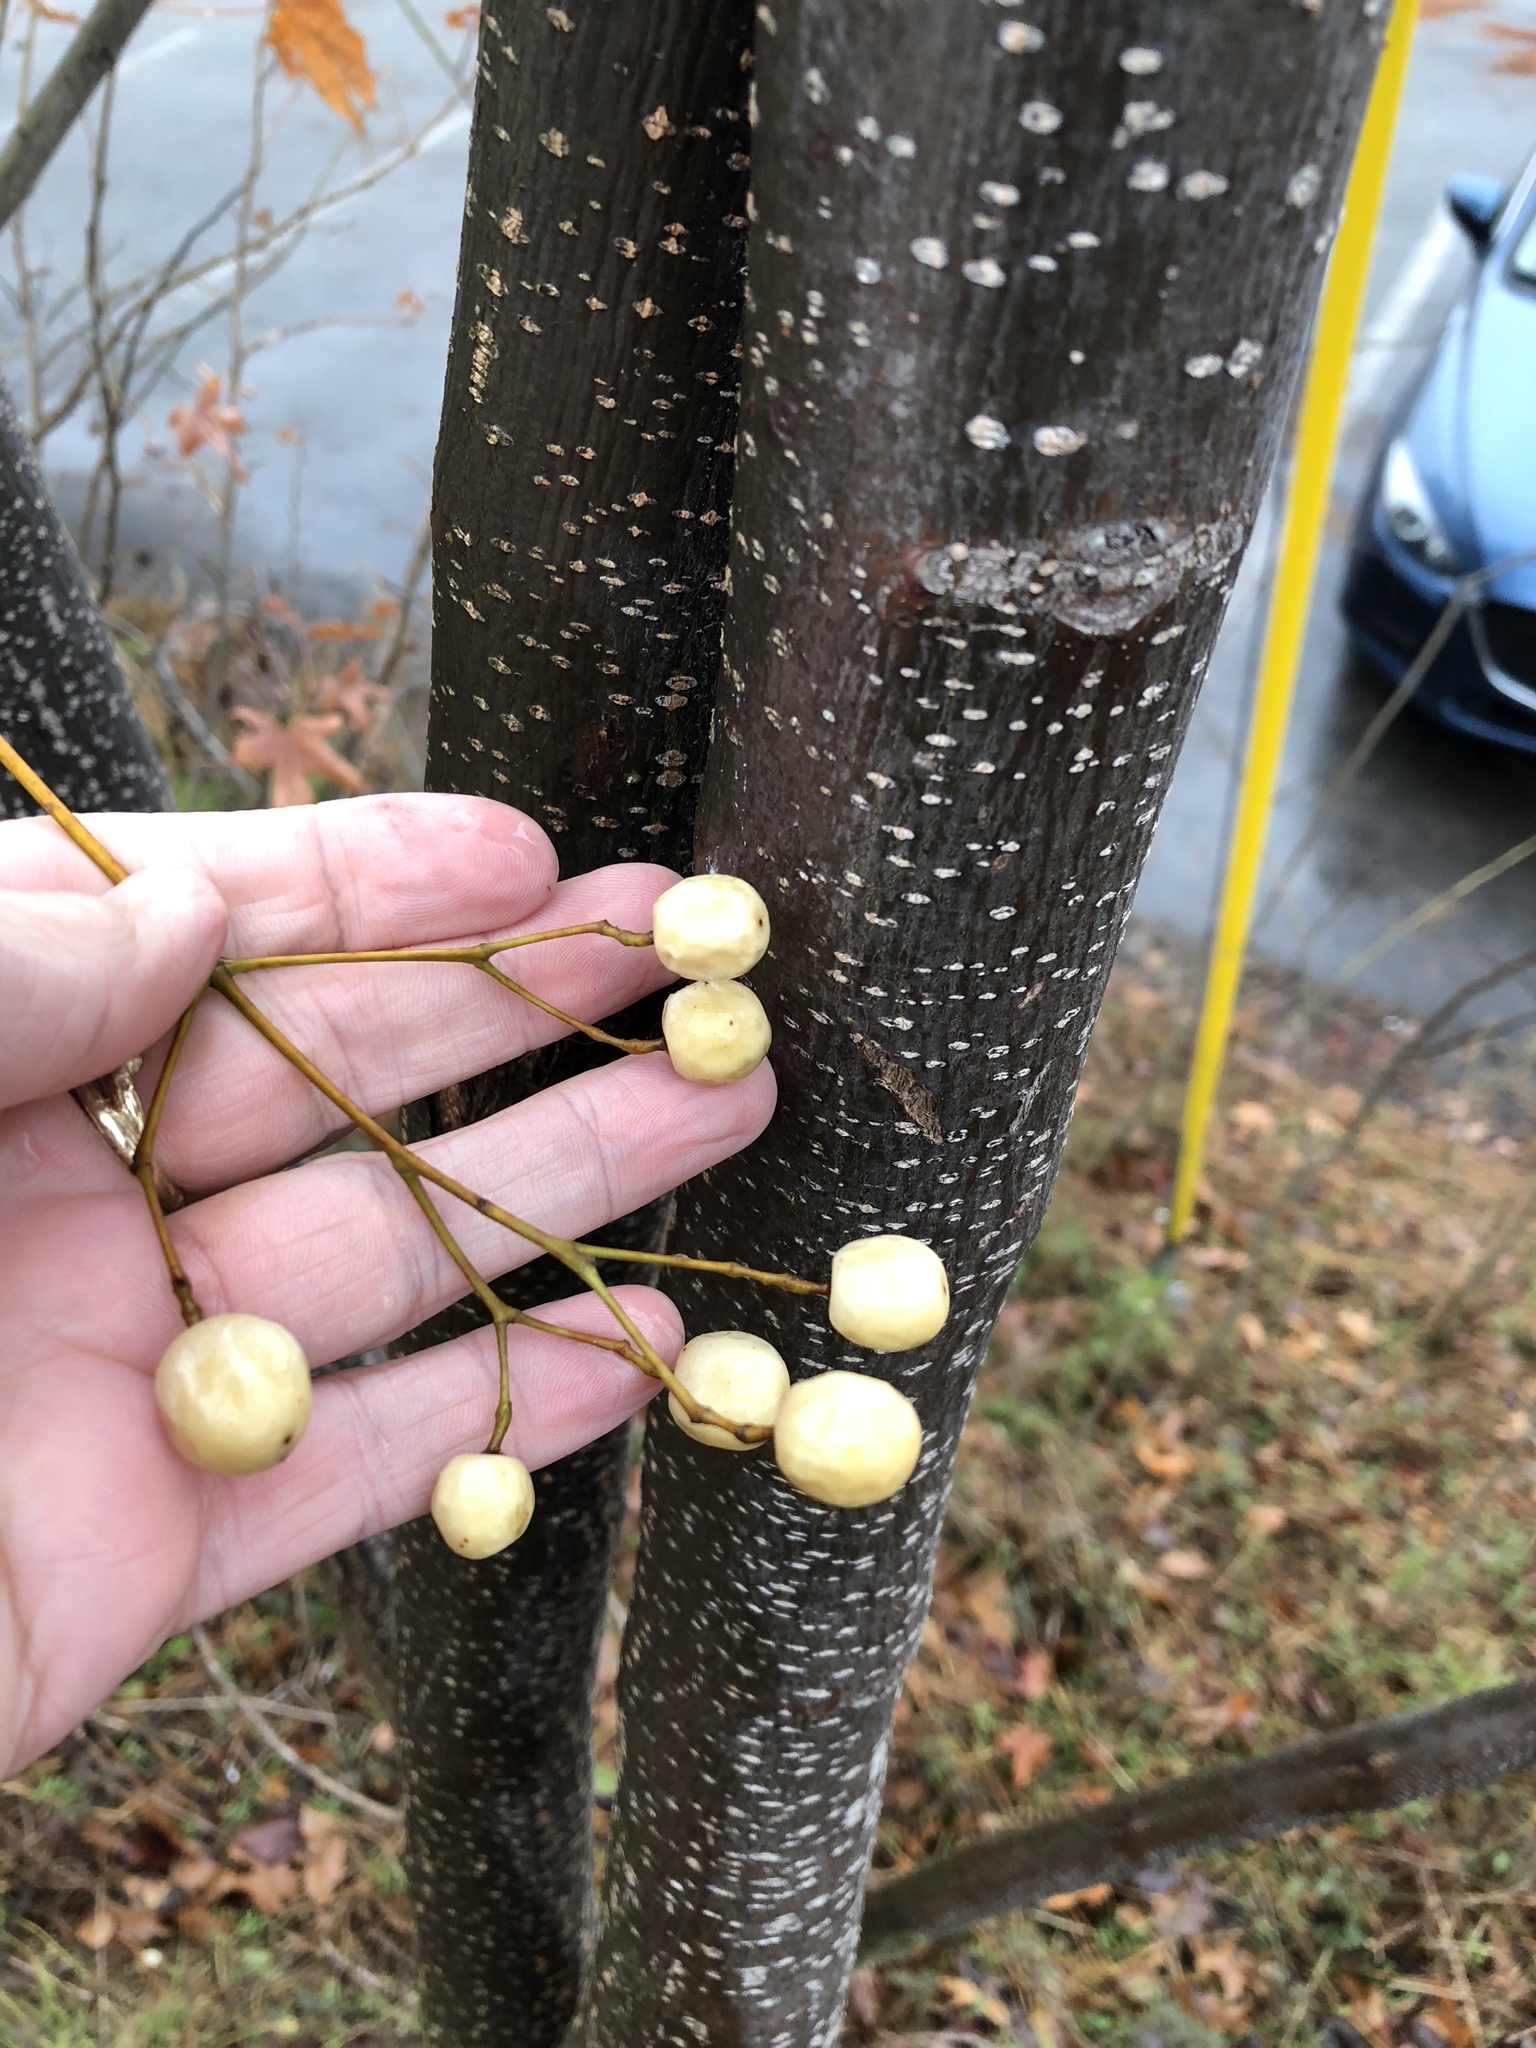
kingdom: Plantae
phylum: Tracheophyta
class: Magnoliopsida
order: Sapindales
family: Meliaceae
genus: Melia
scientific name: Melia azedarach
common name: Chinaberrytree
